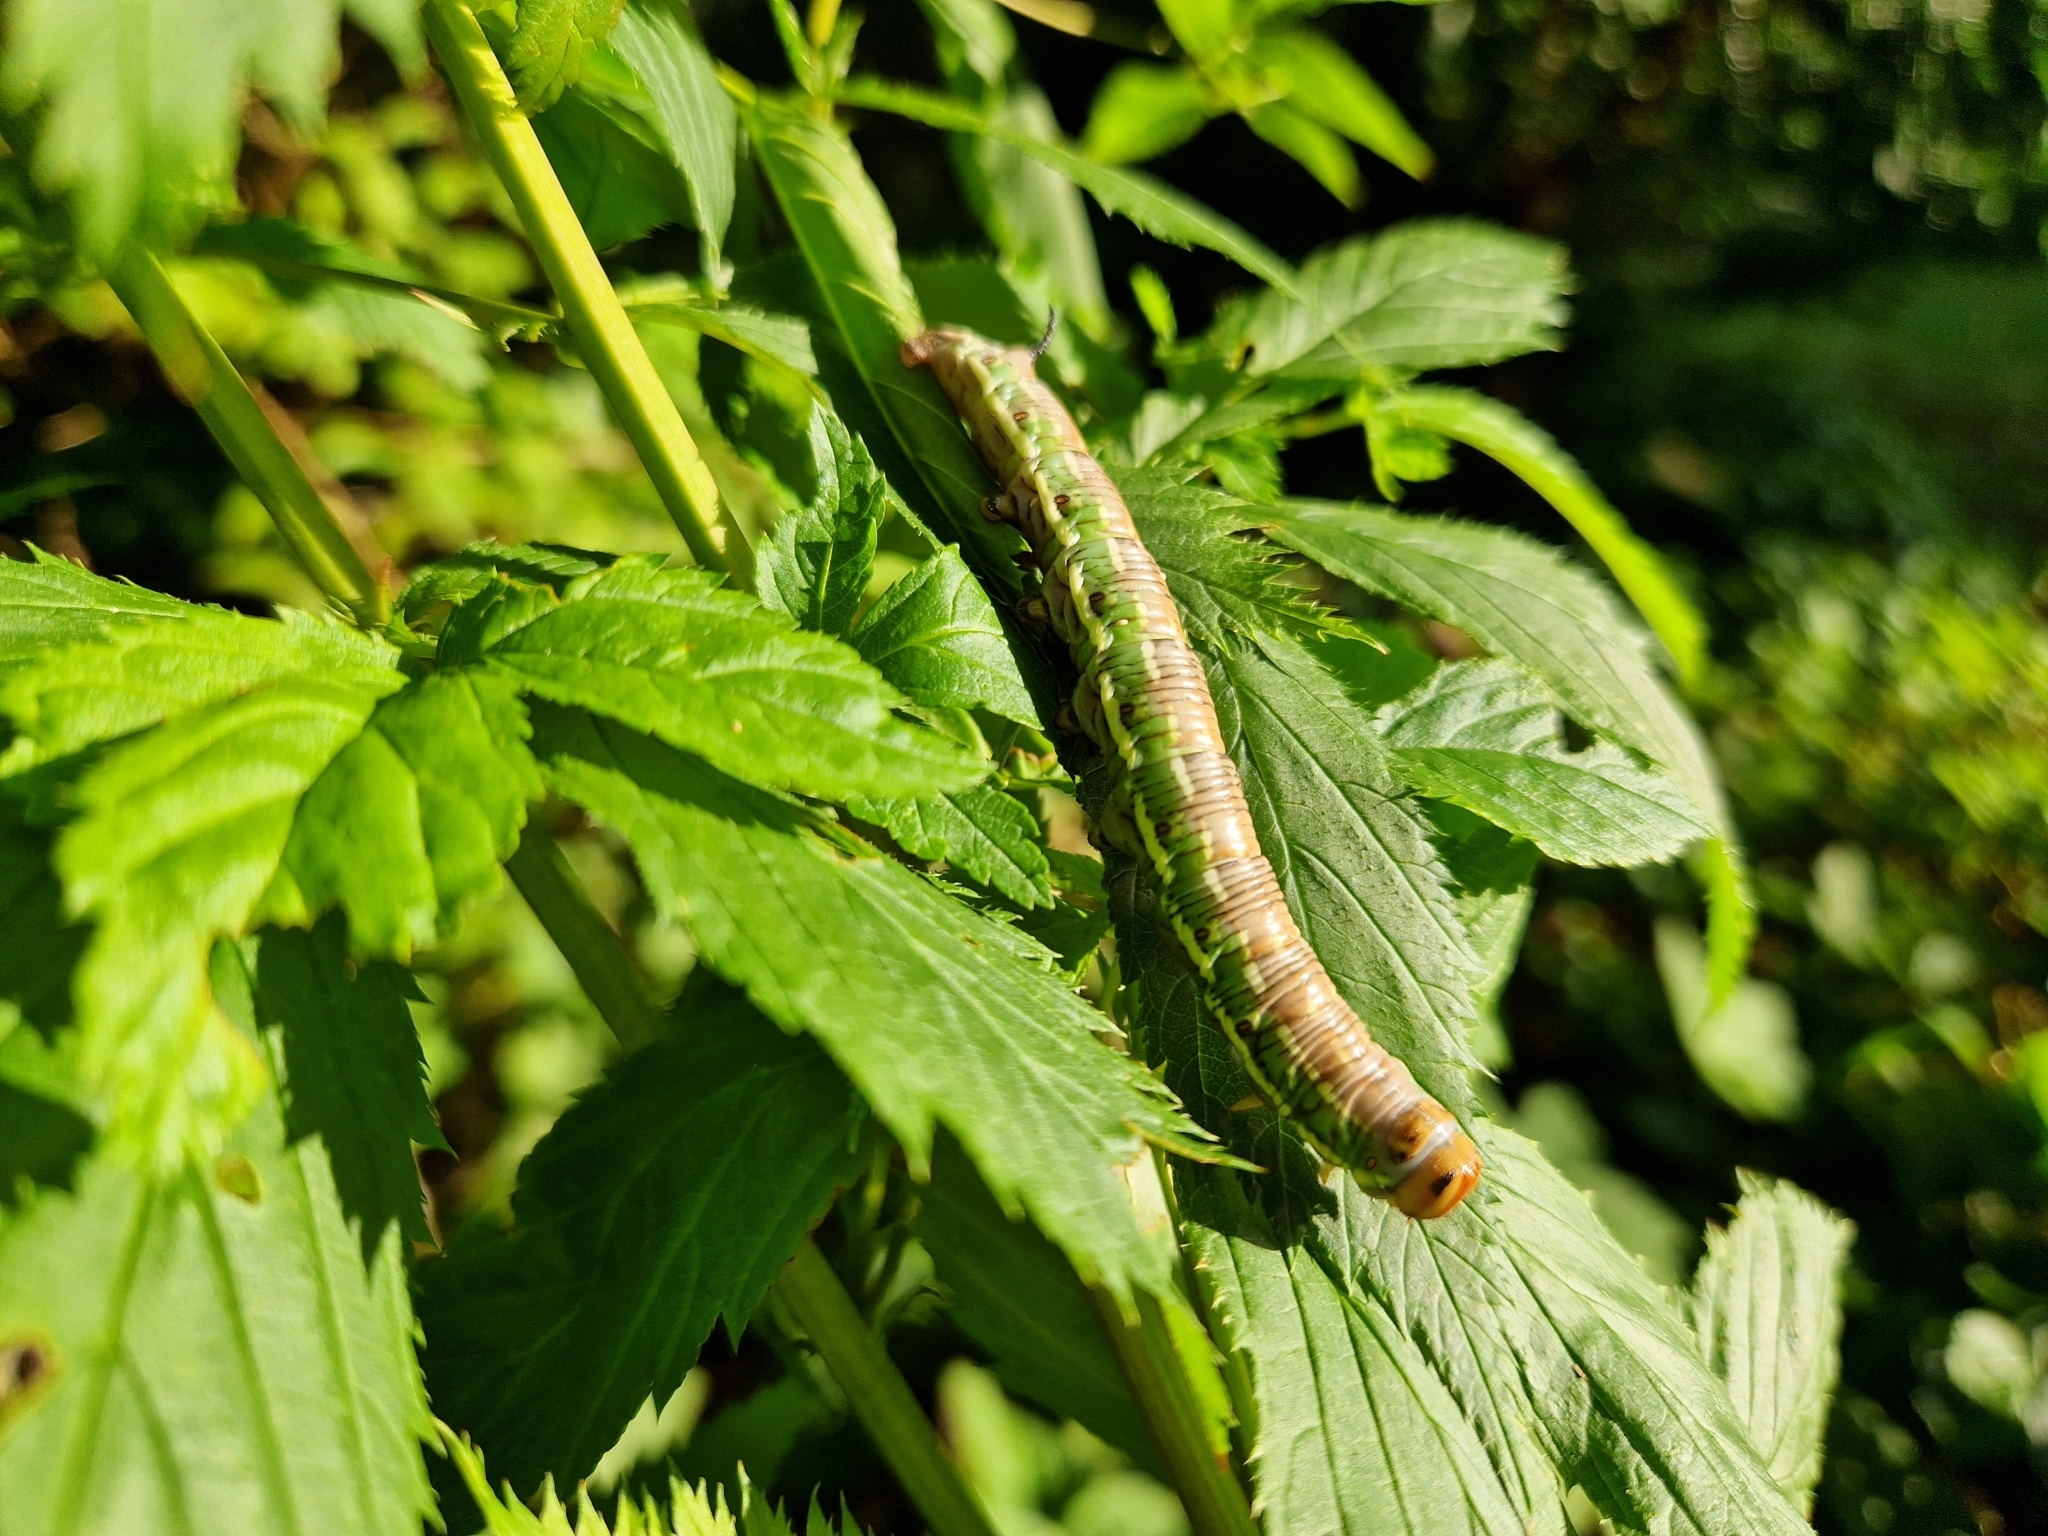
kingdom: Animalia
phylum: Arthropoda
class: Insecta
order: Lepidoptera
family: Sphingidae
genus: Sphinx
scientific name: Sphinx pinastri
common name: Pine hawk-moth
